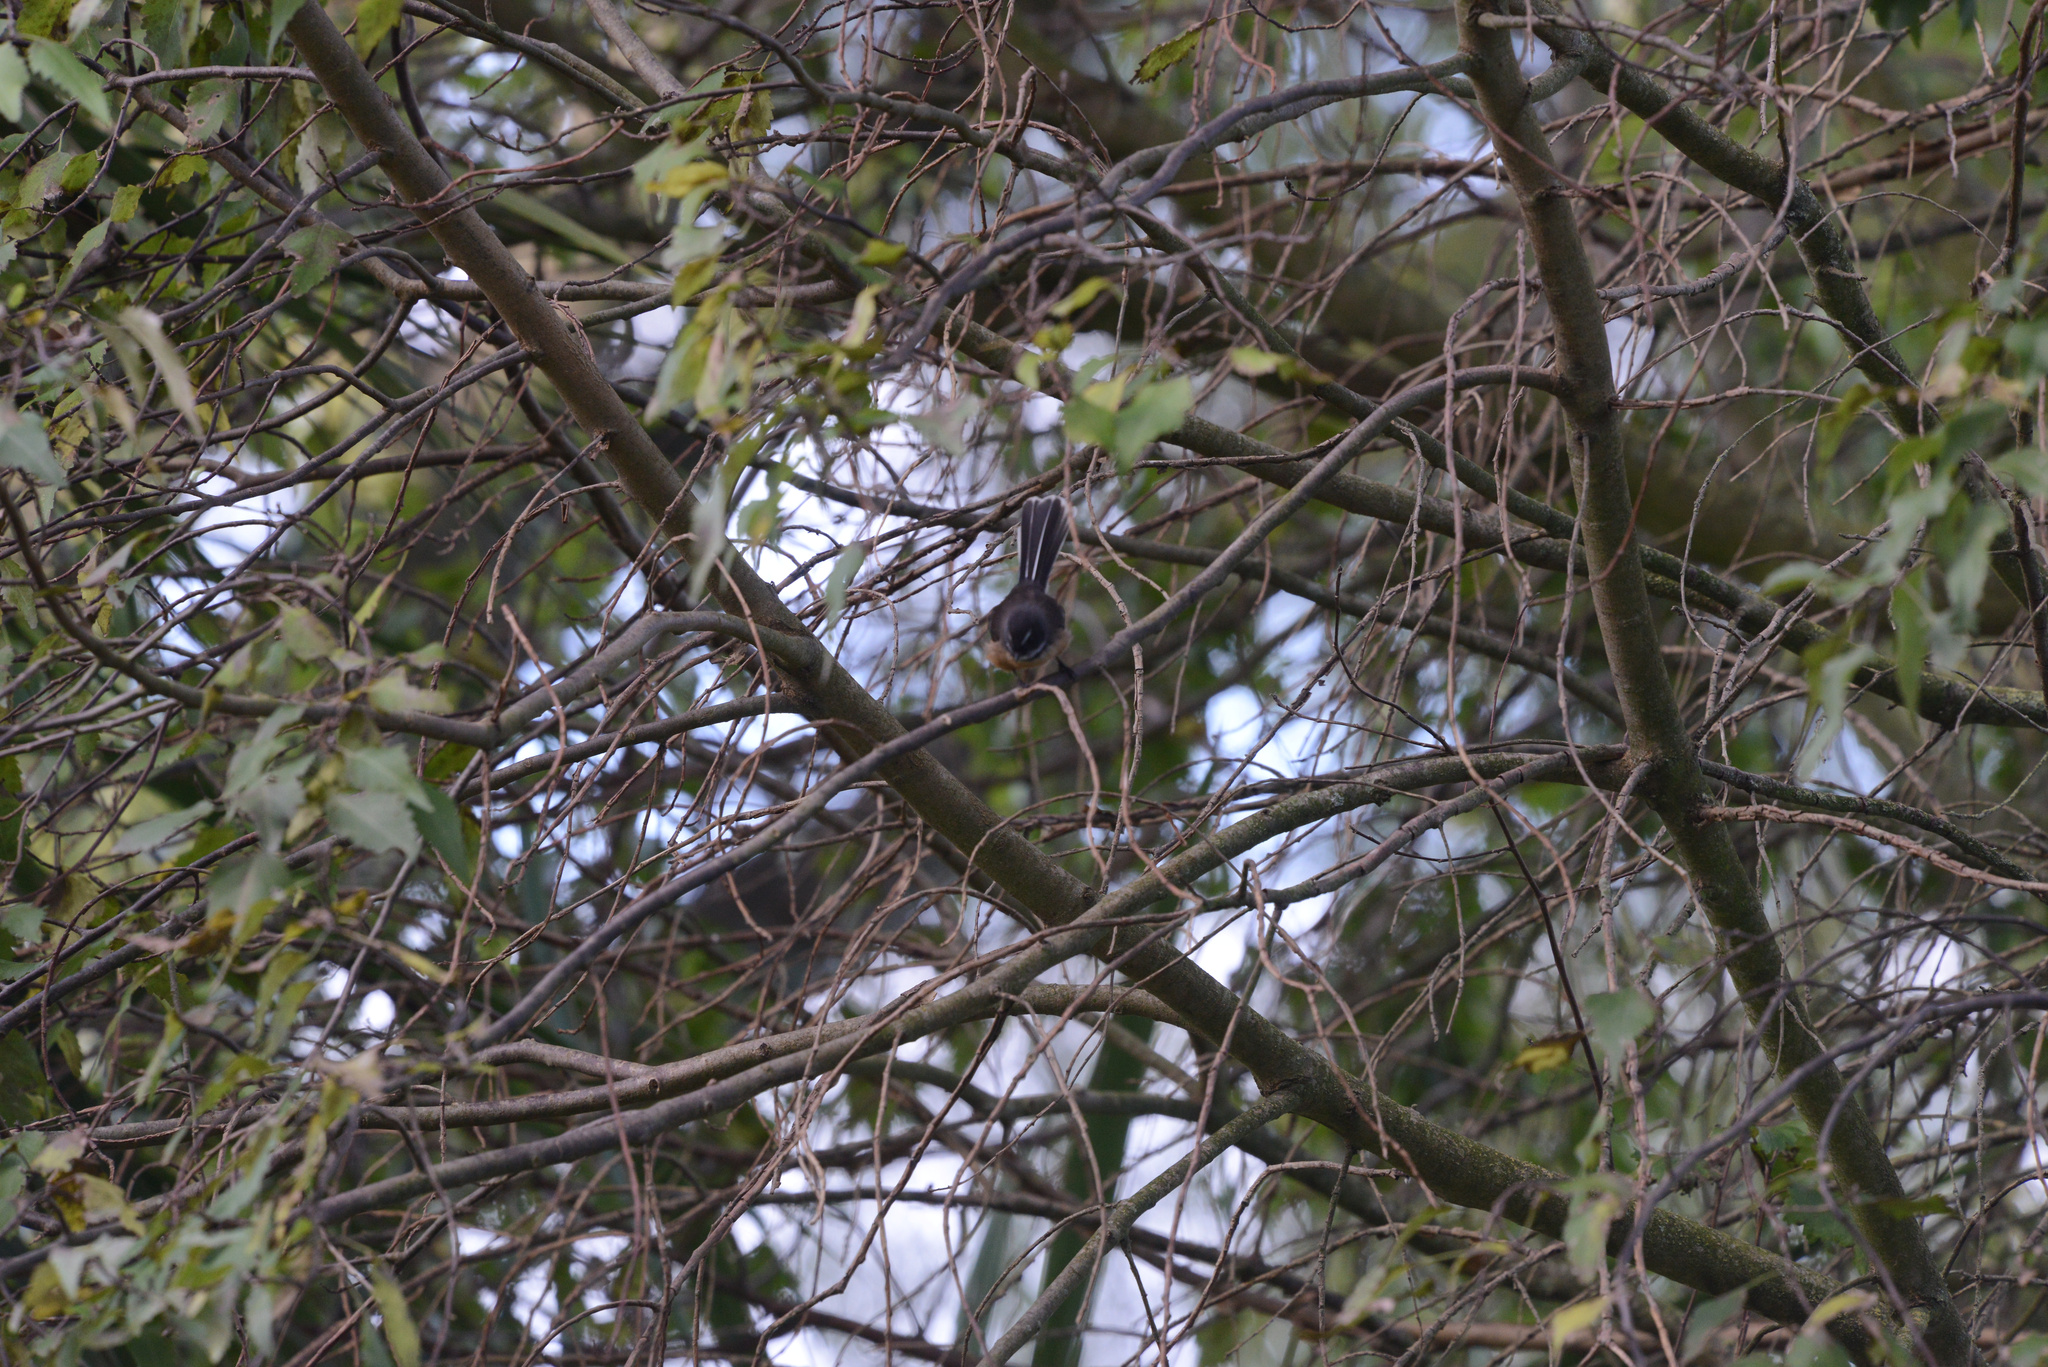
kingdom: Animalia
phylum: Chordata
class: Aves
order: Passeriformes
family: Rhipiduridae
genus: Rhipidura
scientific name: Rhipidura fuliginosa
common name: New zealand fantail
